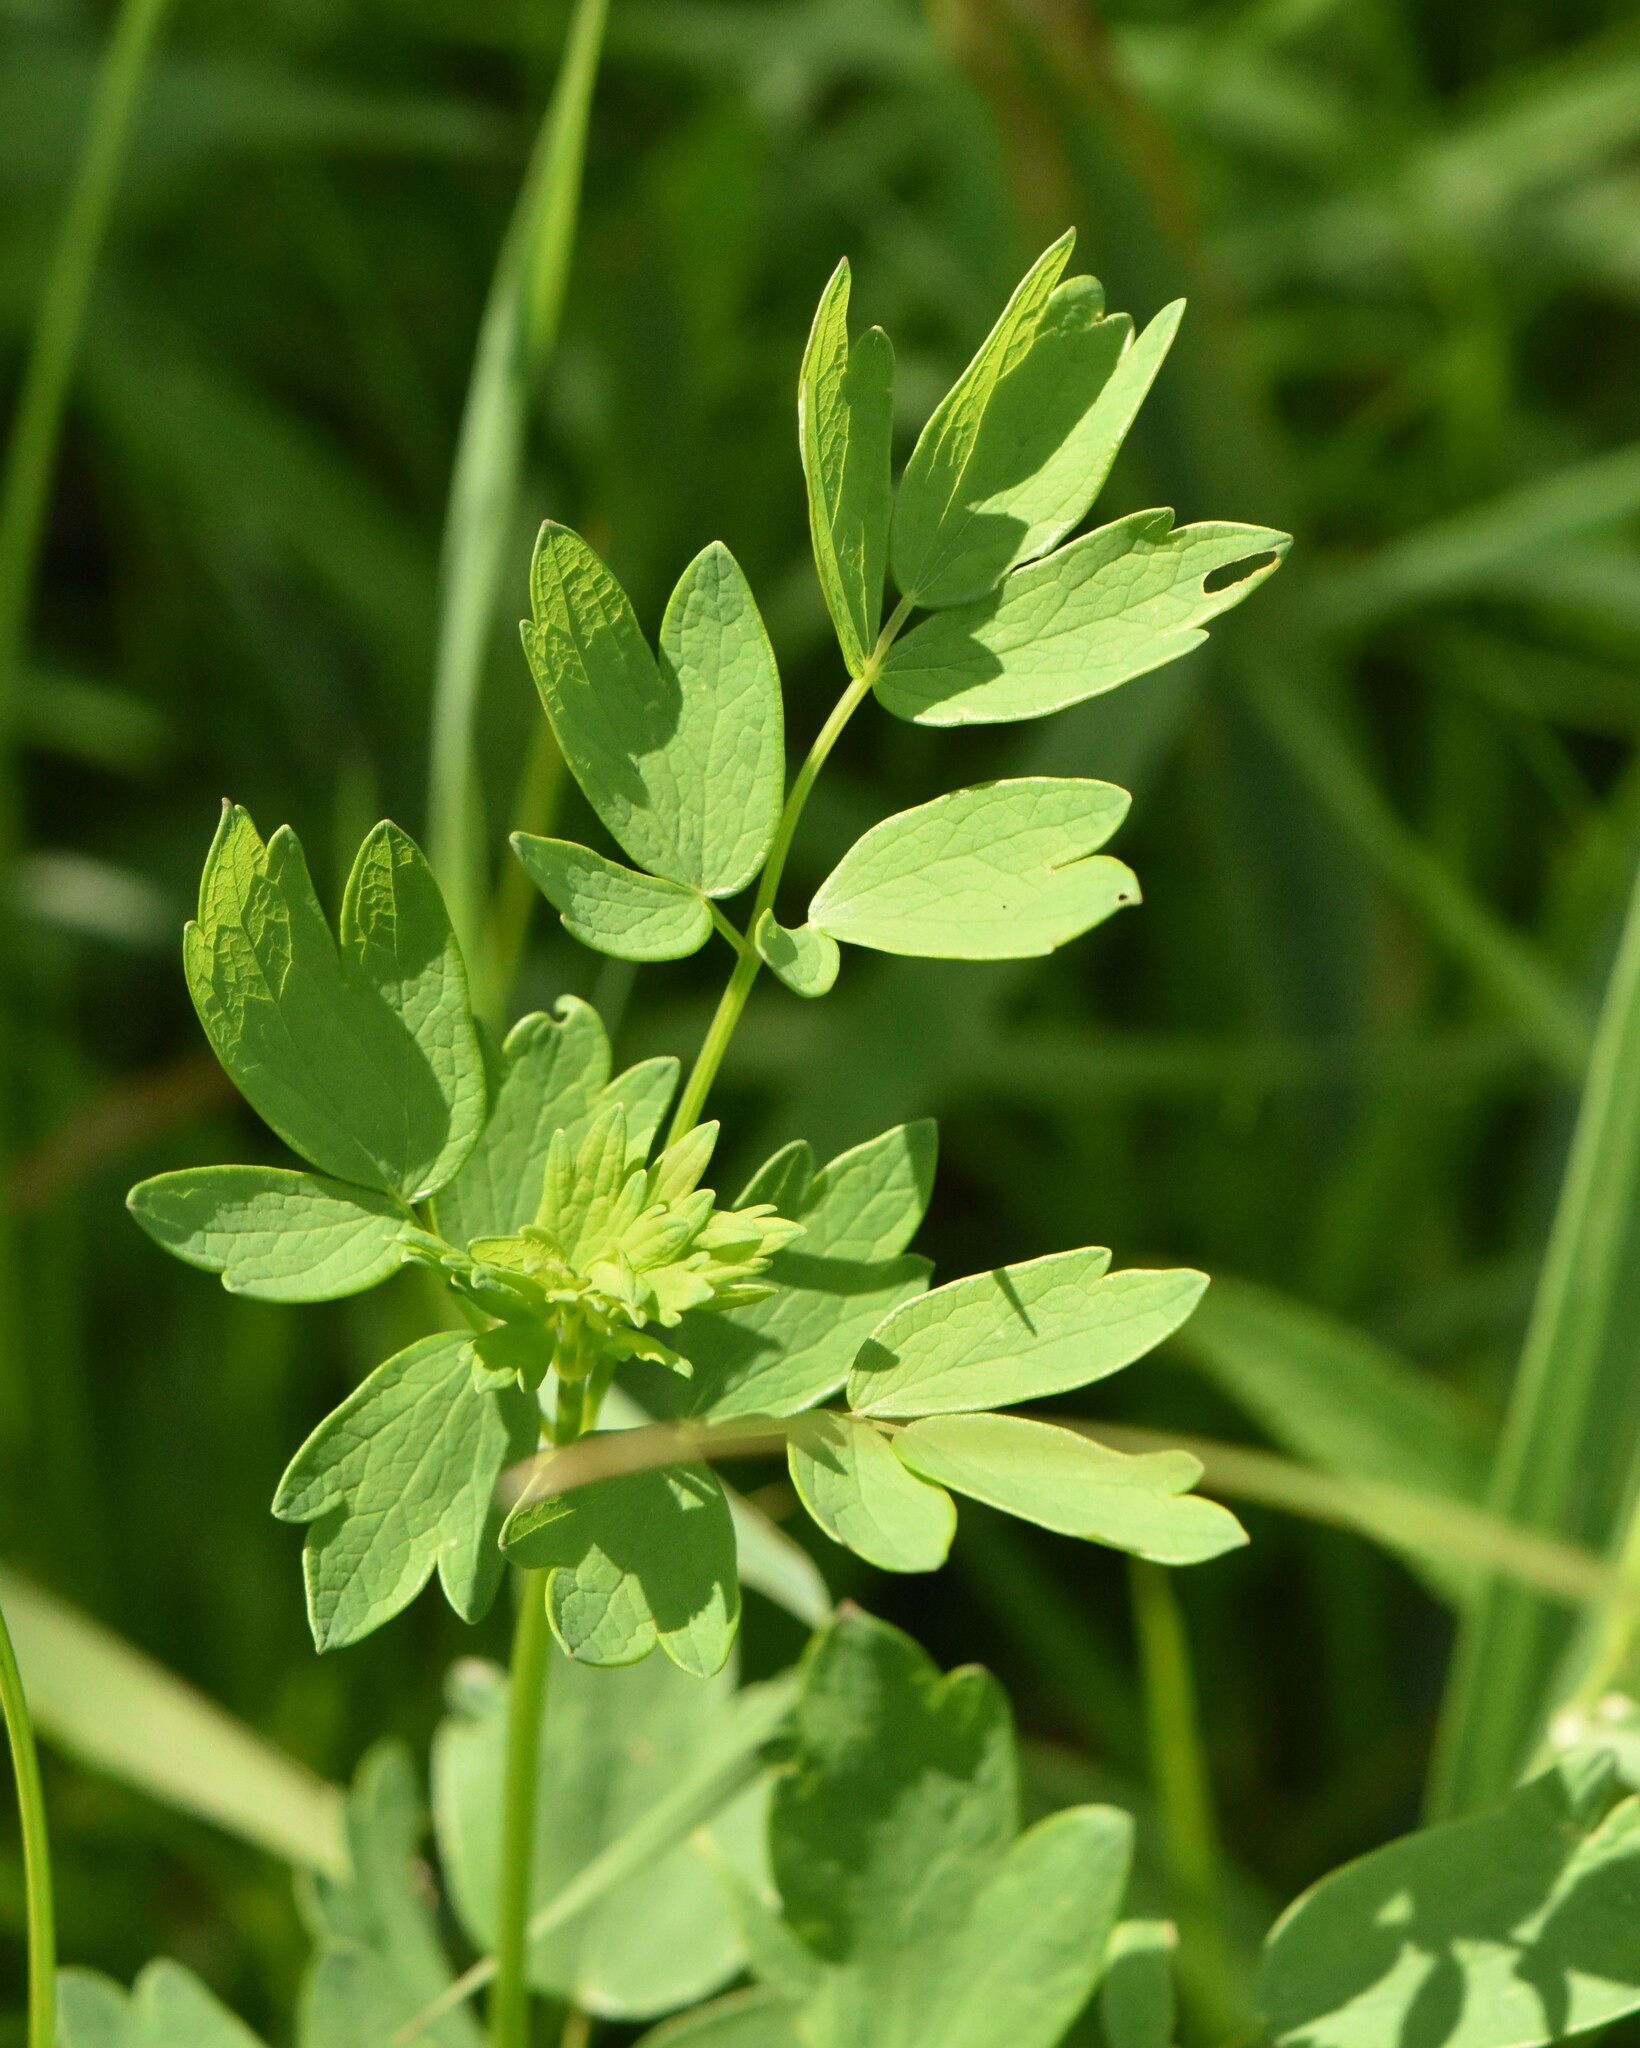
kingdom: Plantae
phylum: Tracheophyta
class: Magnoliopsida
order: Ranunculales
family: Ranunculaceae
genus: Thalictrum
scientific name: Thalictrum flavum
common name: Common meadow-rue
